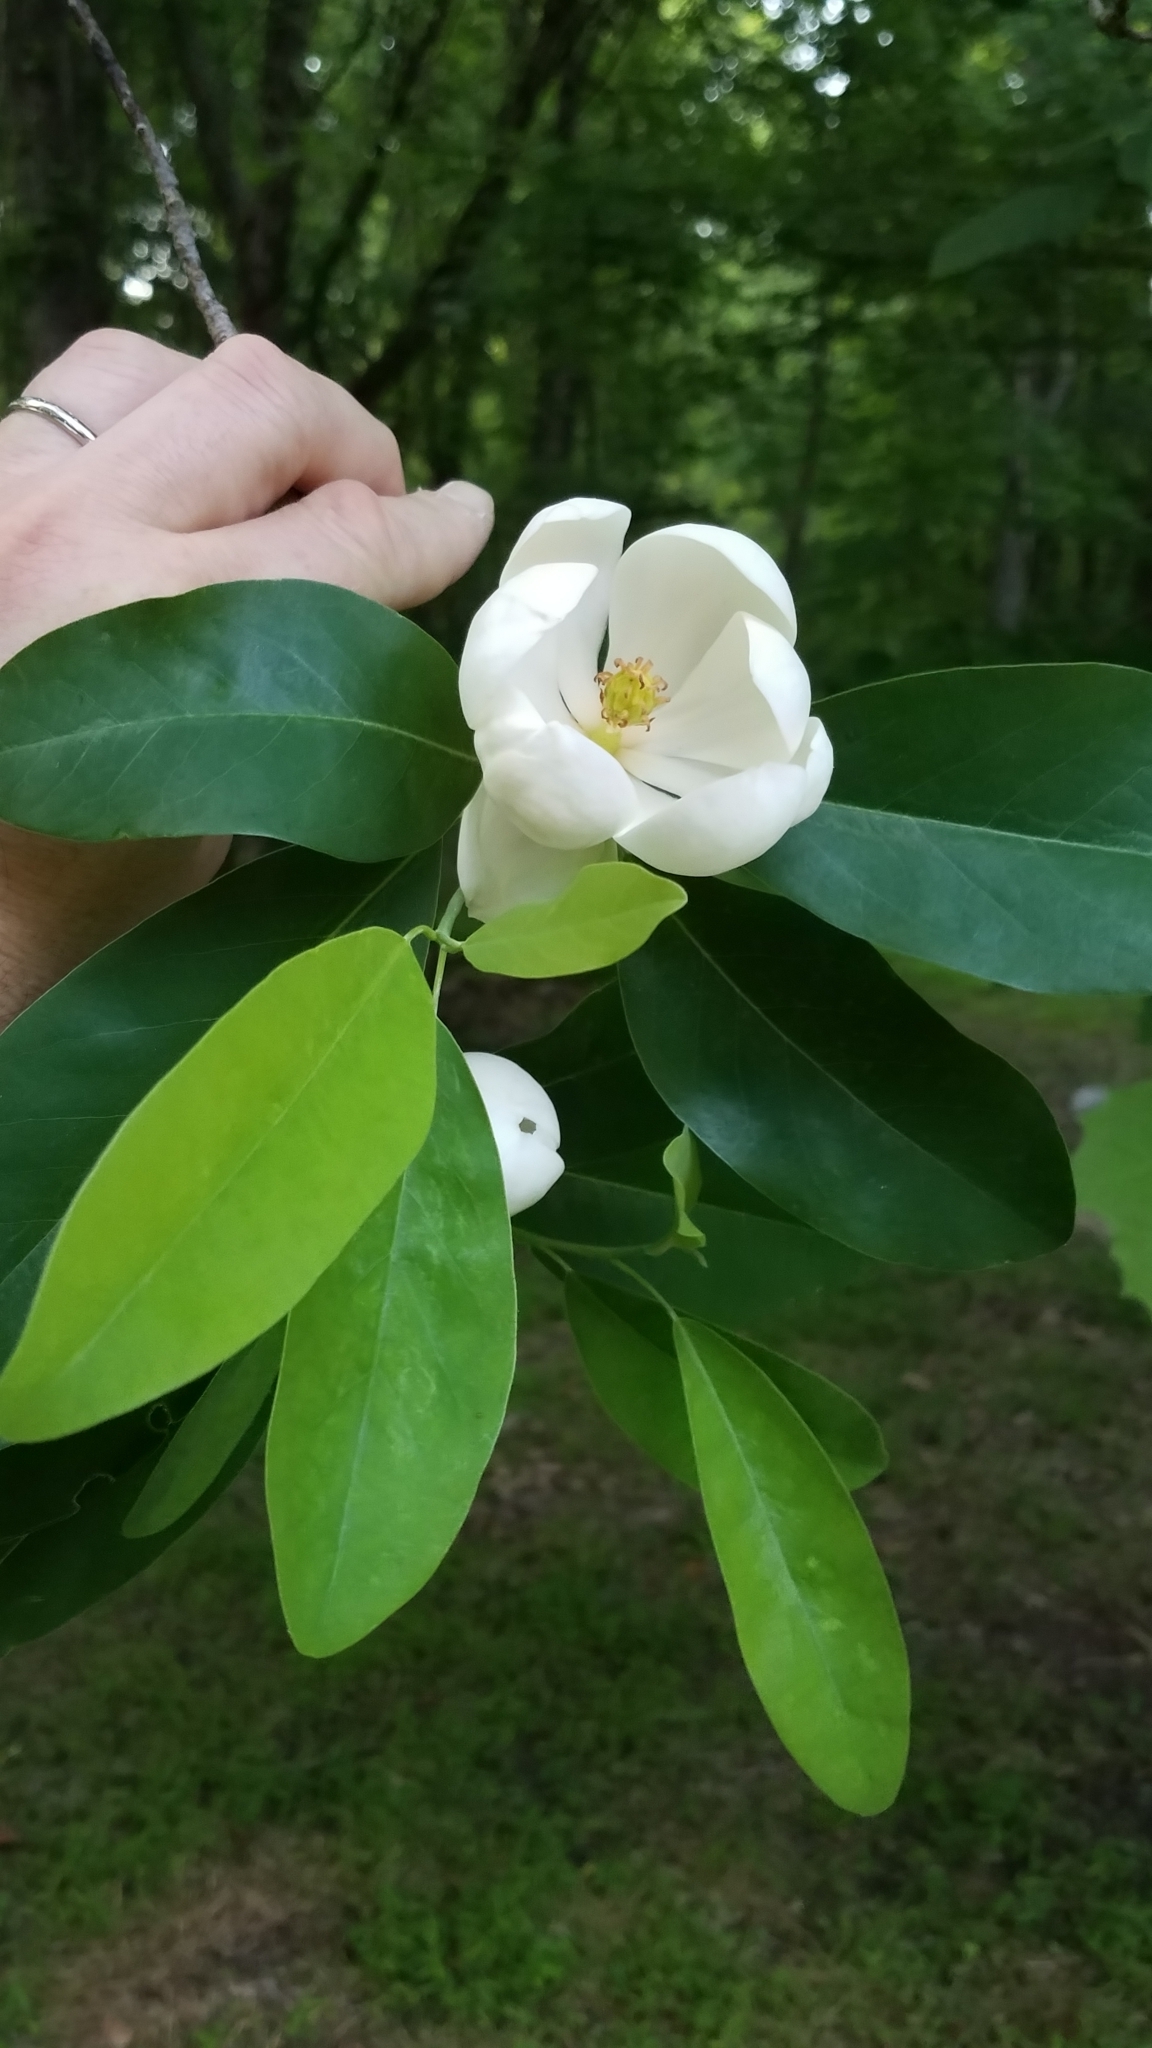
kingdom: Plantae
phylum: Tracheophyta
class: Magnoliopsida
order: Magnoliales
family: Magnoliaceae
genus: Magnolia
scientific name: Magnolia virginiana
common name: Swamp bay
